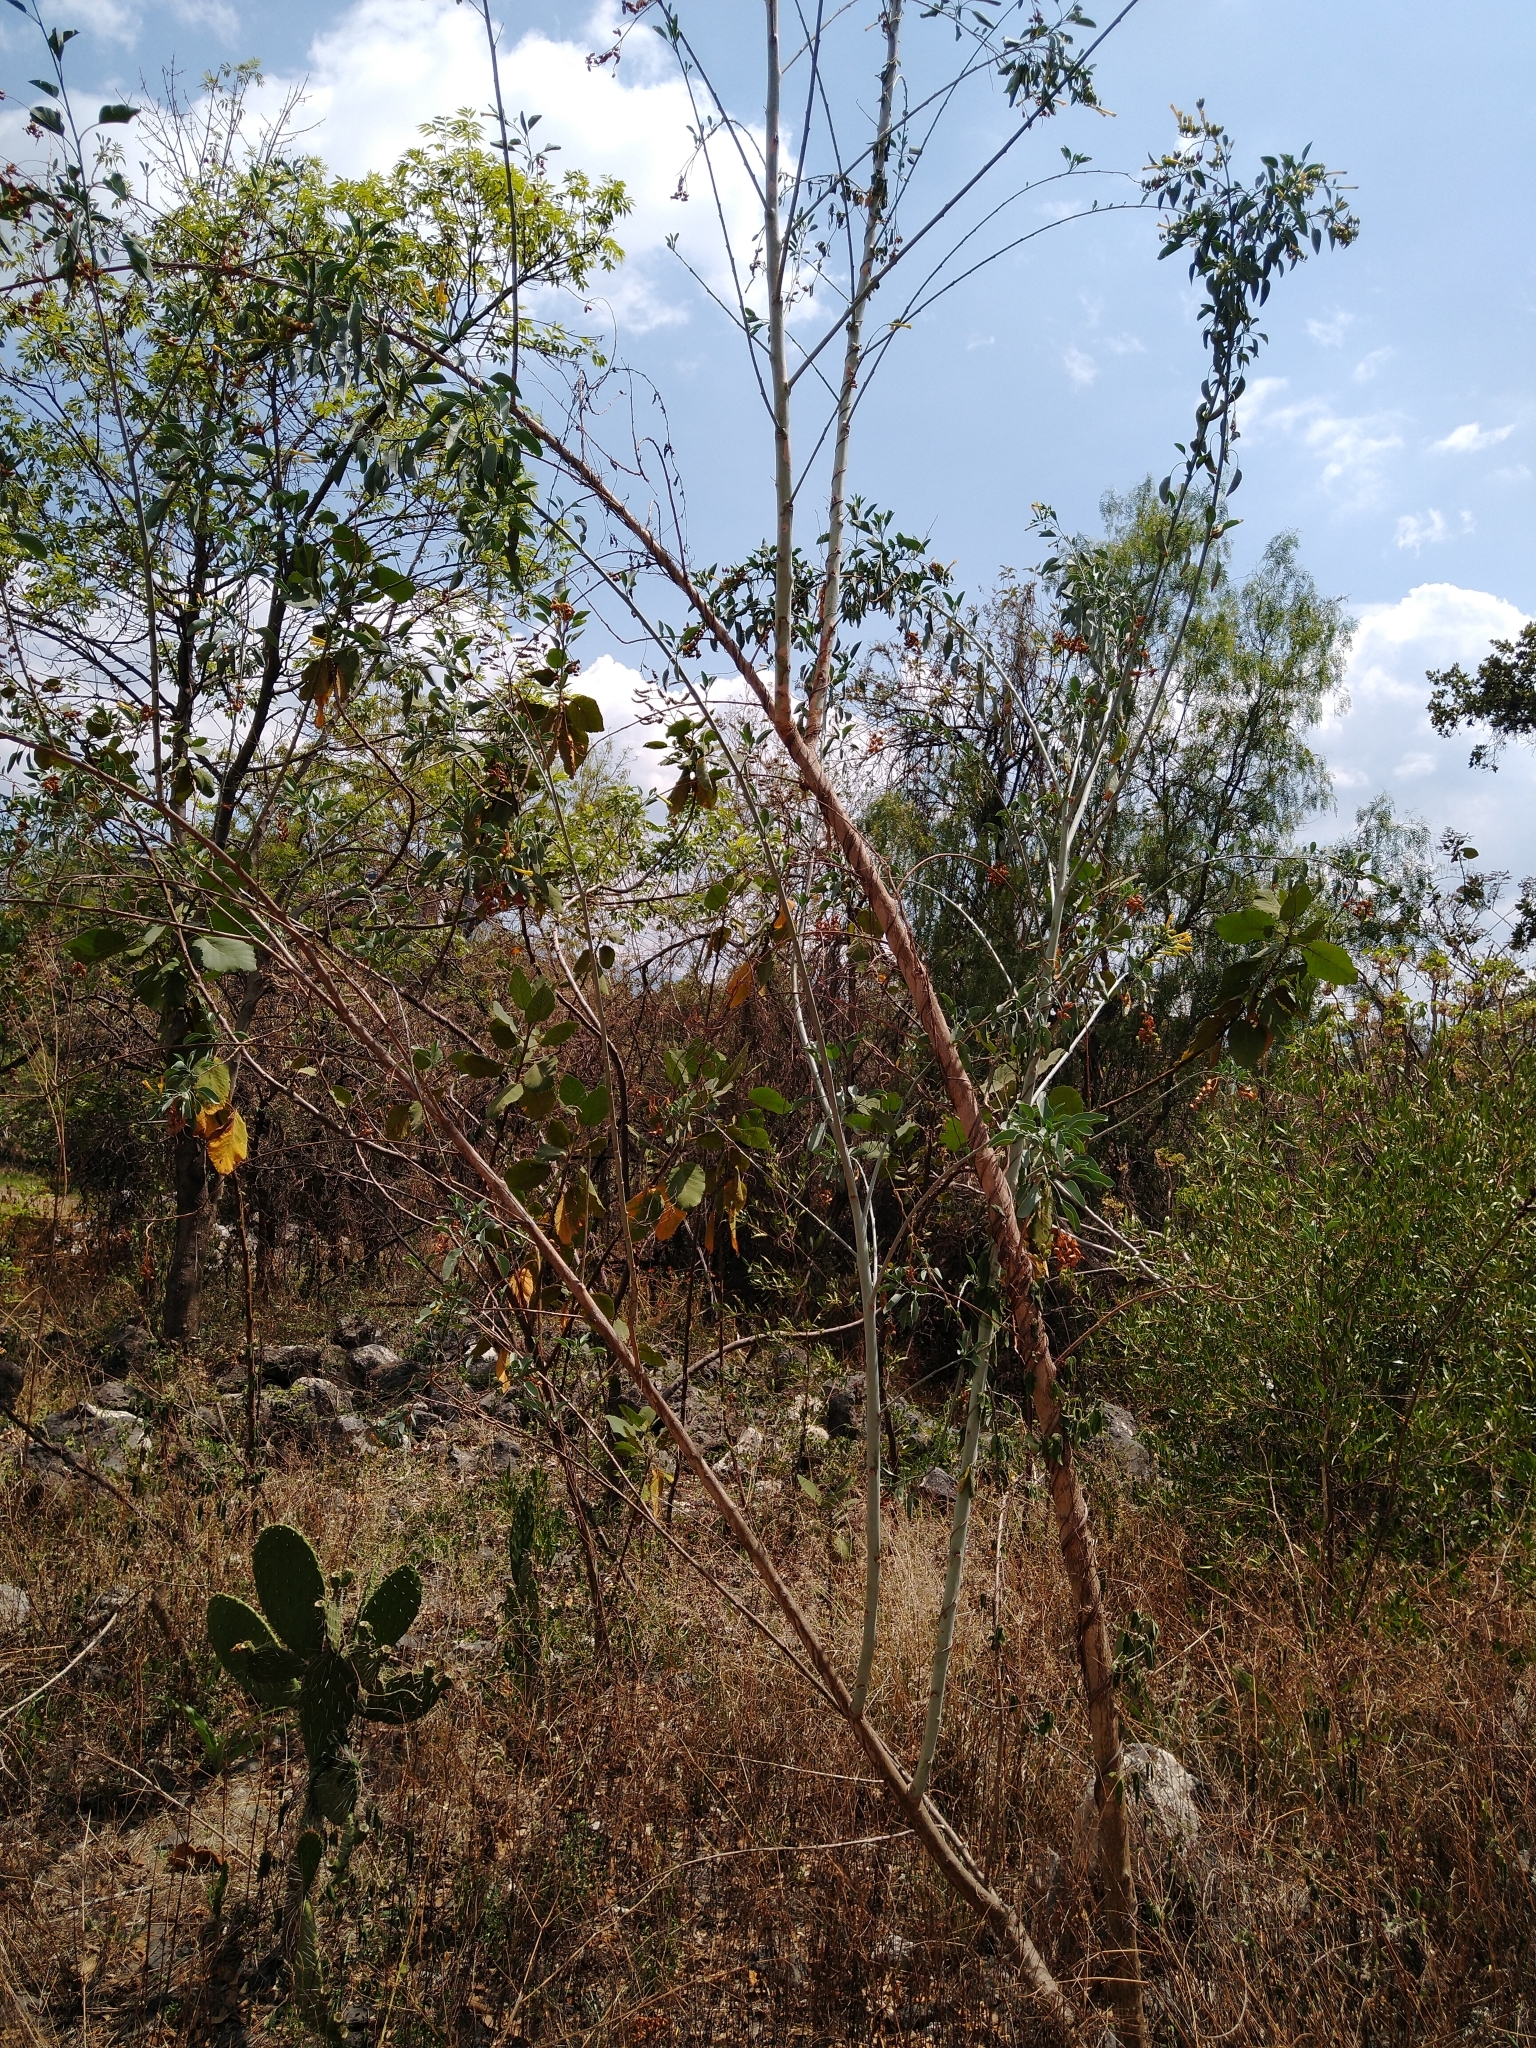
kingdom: Plantae
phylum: Tracheophyta
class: Magnoliopsida
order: Solanales
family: Solanaceae
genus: Nicotiana
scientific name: Nicotiana glauca
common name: Tree tobacco
